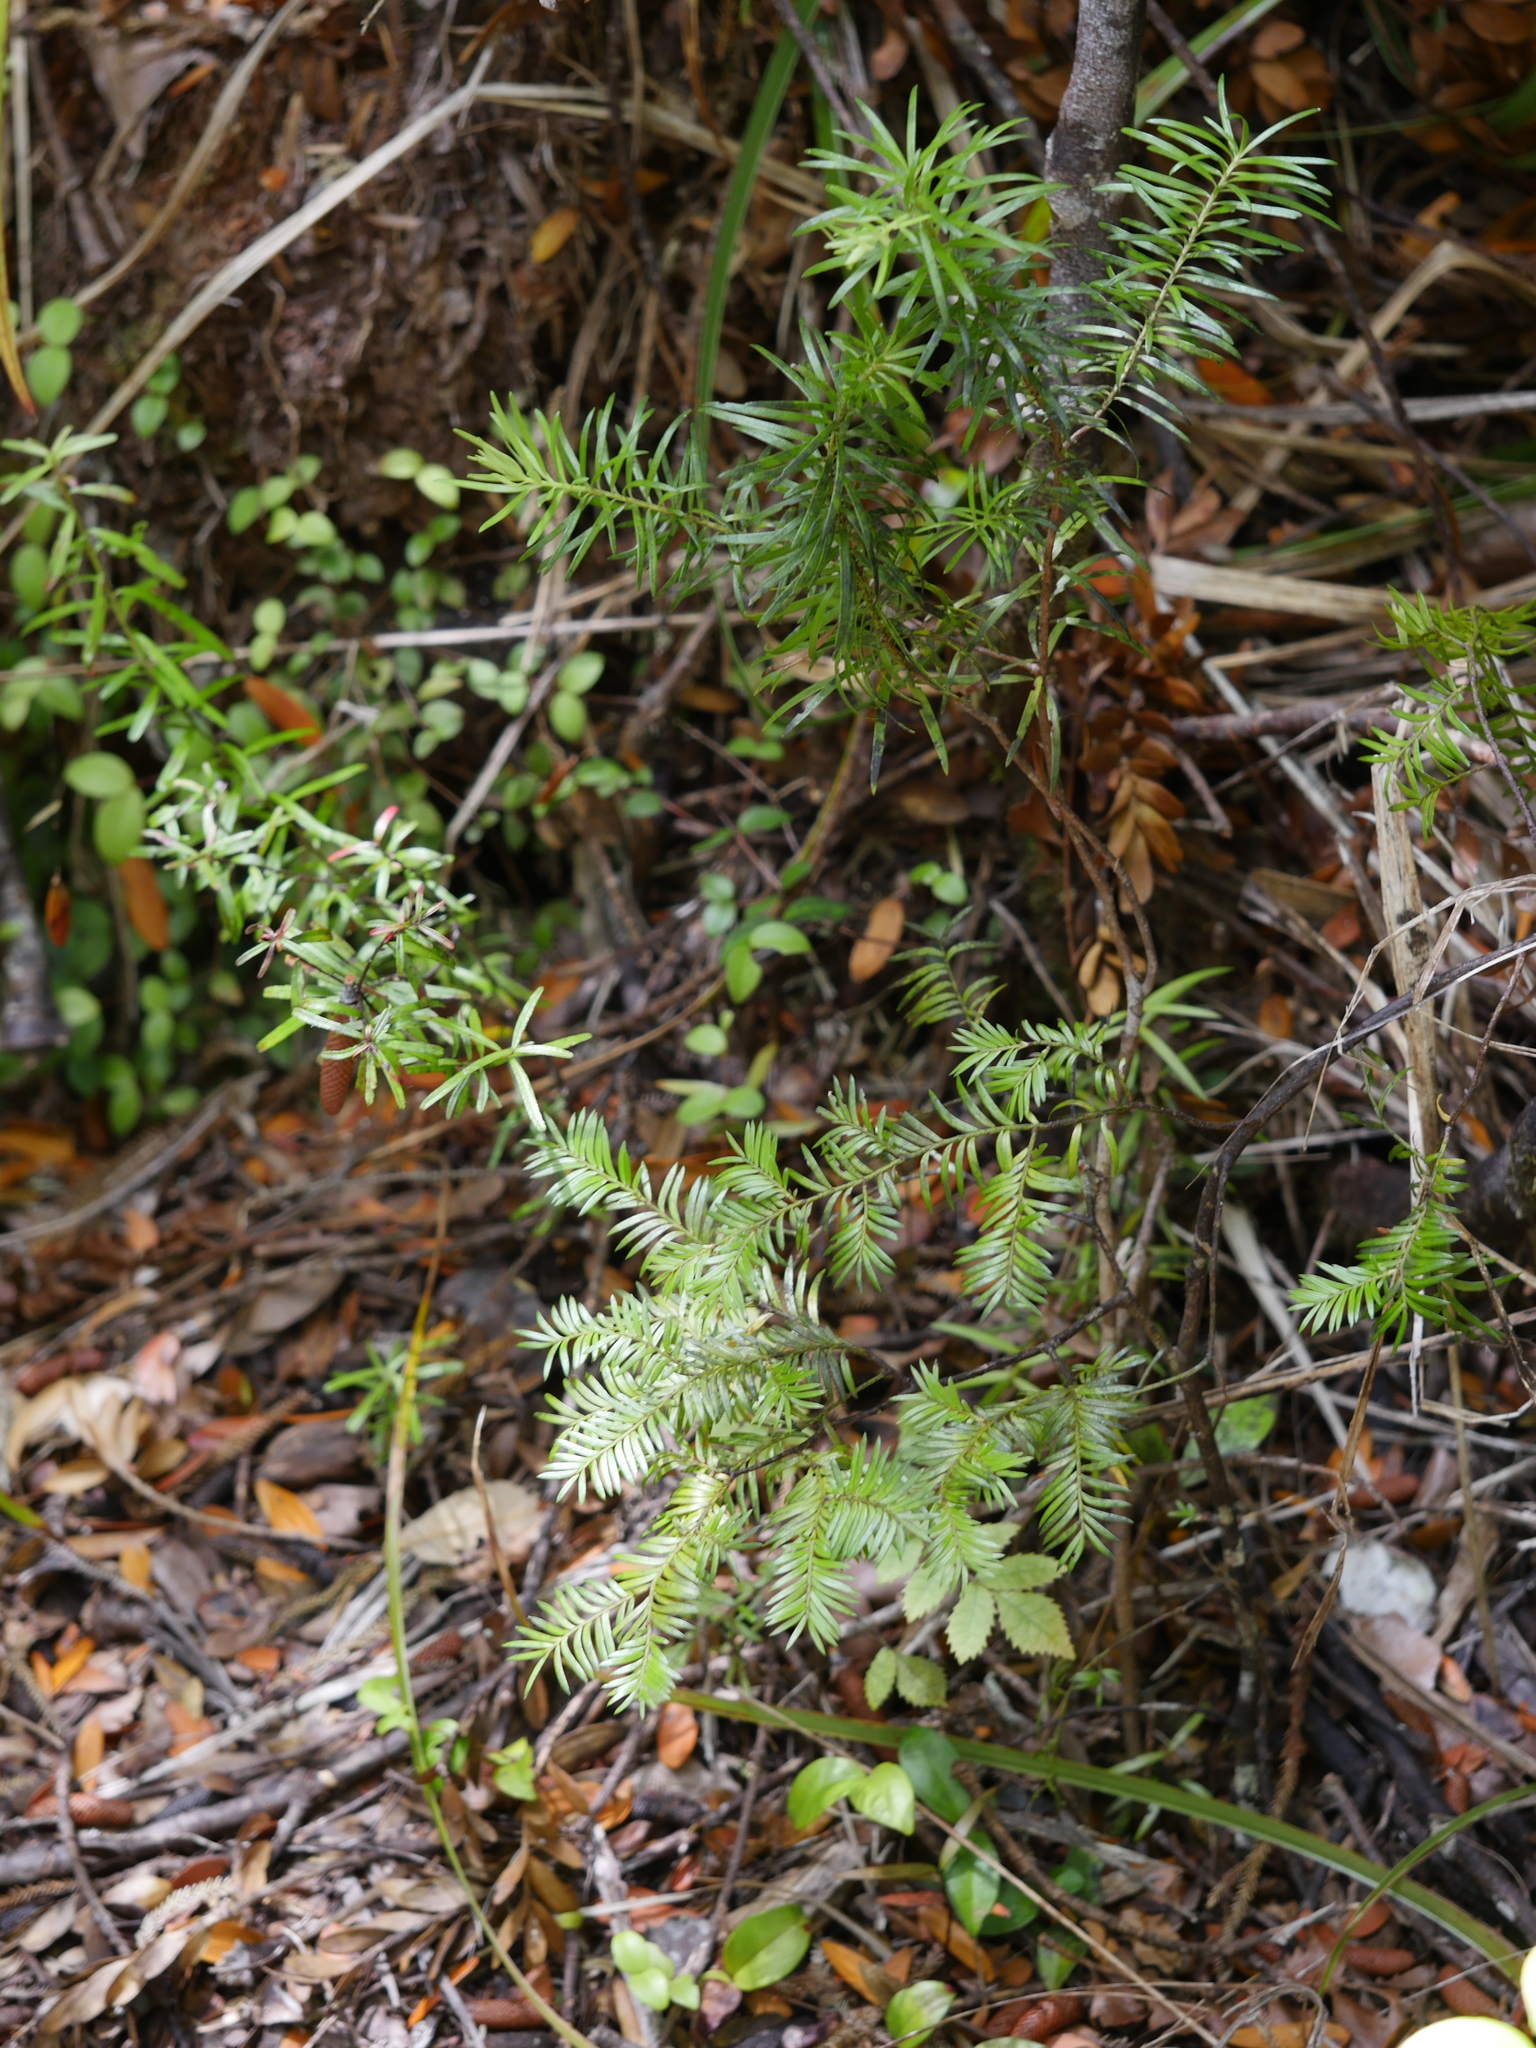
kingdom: Plantae
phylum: Tracheophyta
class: Pinopsida
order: Pinales
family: Podocarpaceae
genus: Halocarpus
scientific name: Halocarpus kirkii
